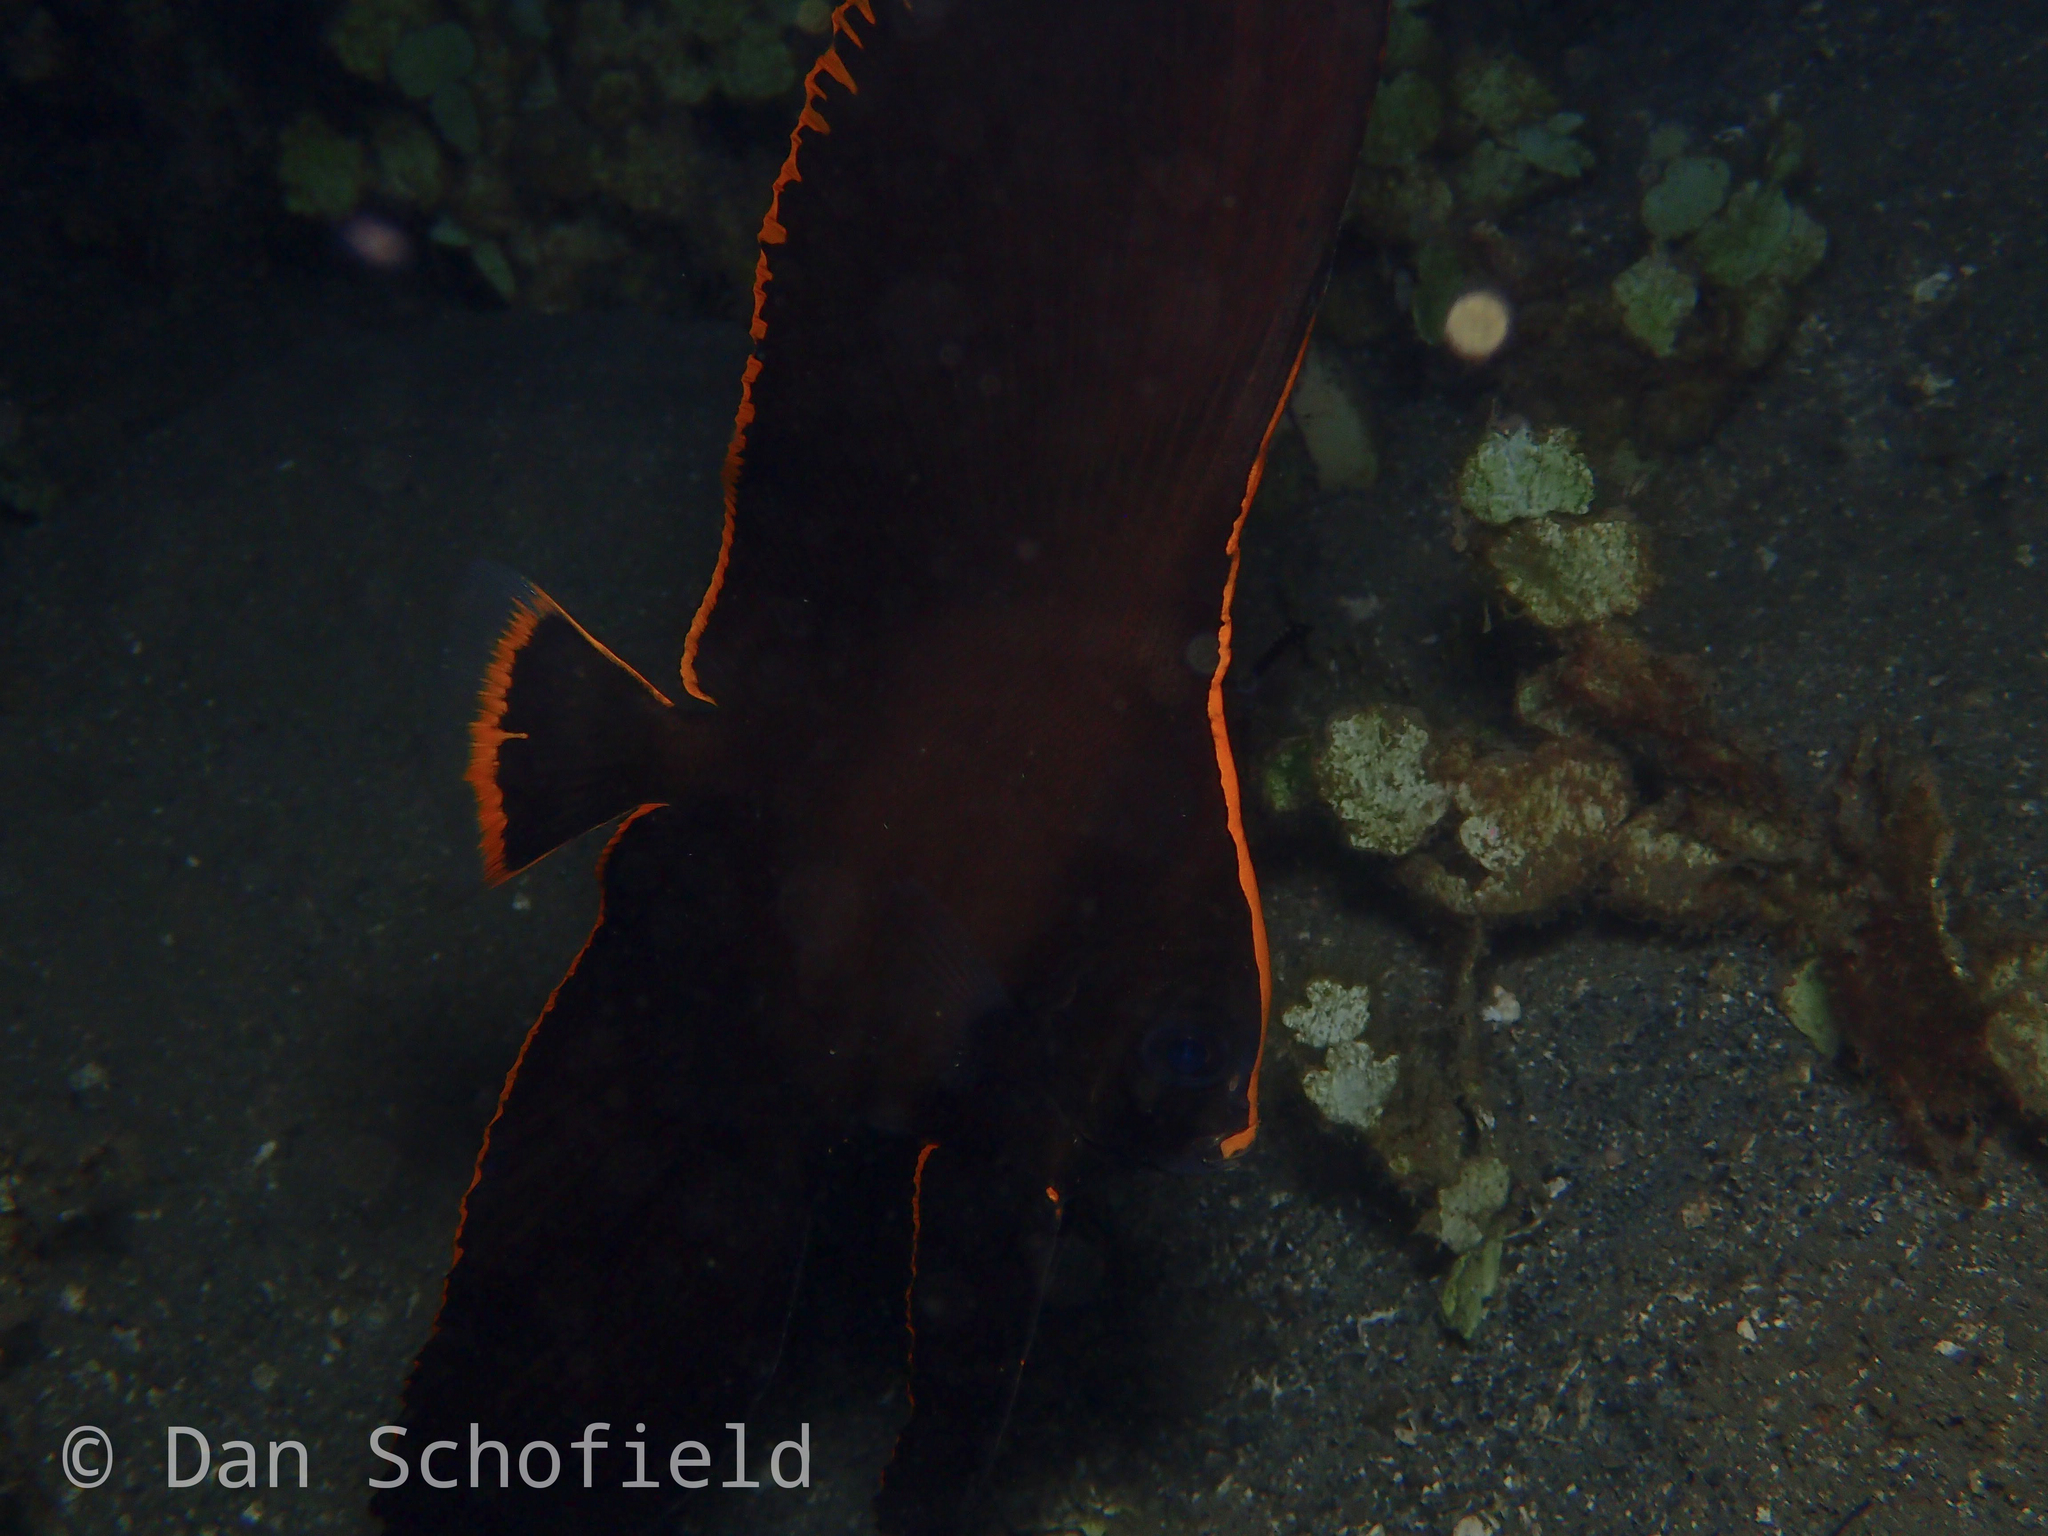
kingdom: Animalia
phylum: Chordata
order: Perciformes
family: Ephippidae
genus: Platax
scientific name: Platax pinnatus
